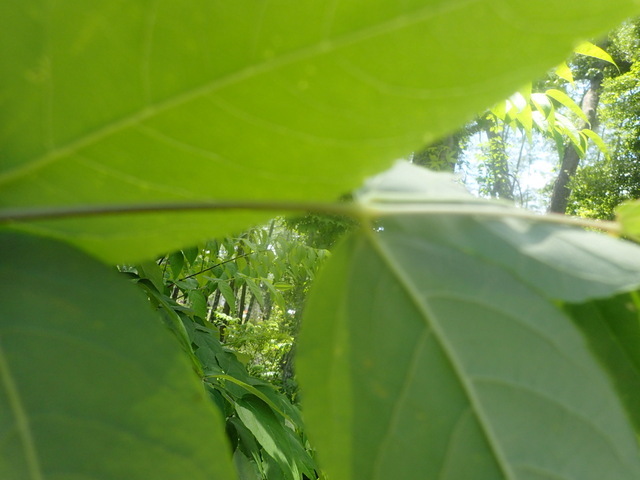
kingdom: Plantae
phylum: Tracheophyta
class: Magnoliopsida
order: Apiales
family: Araliaceae
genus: Aralia
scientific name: Aralia spinosa
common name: Hercules'-club
